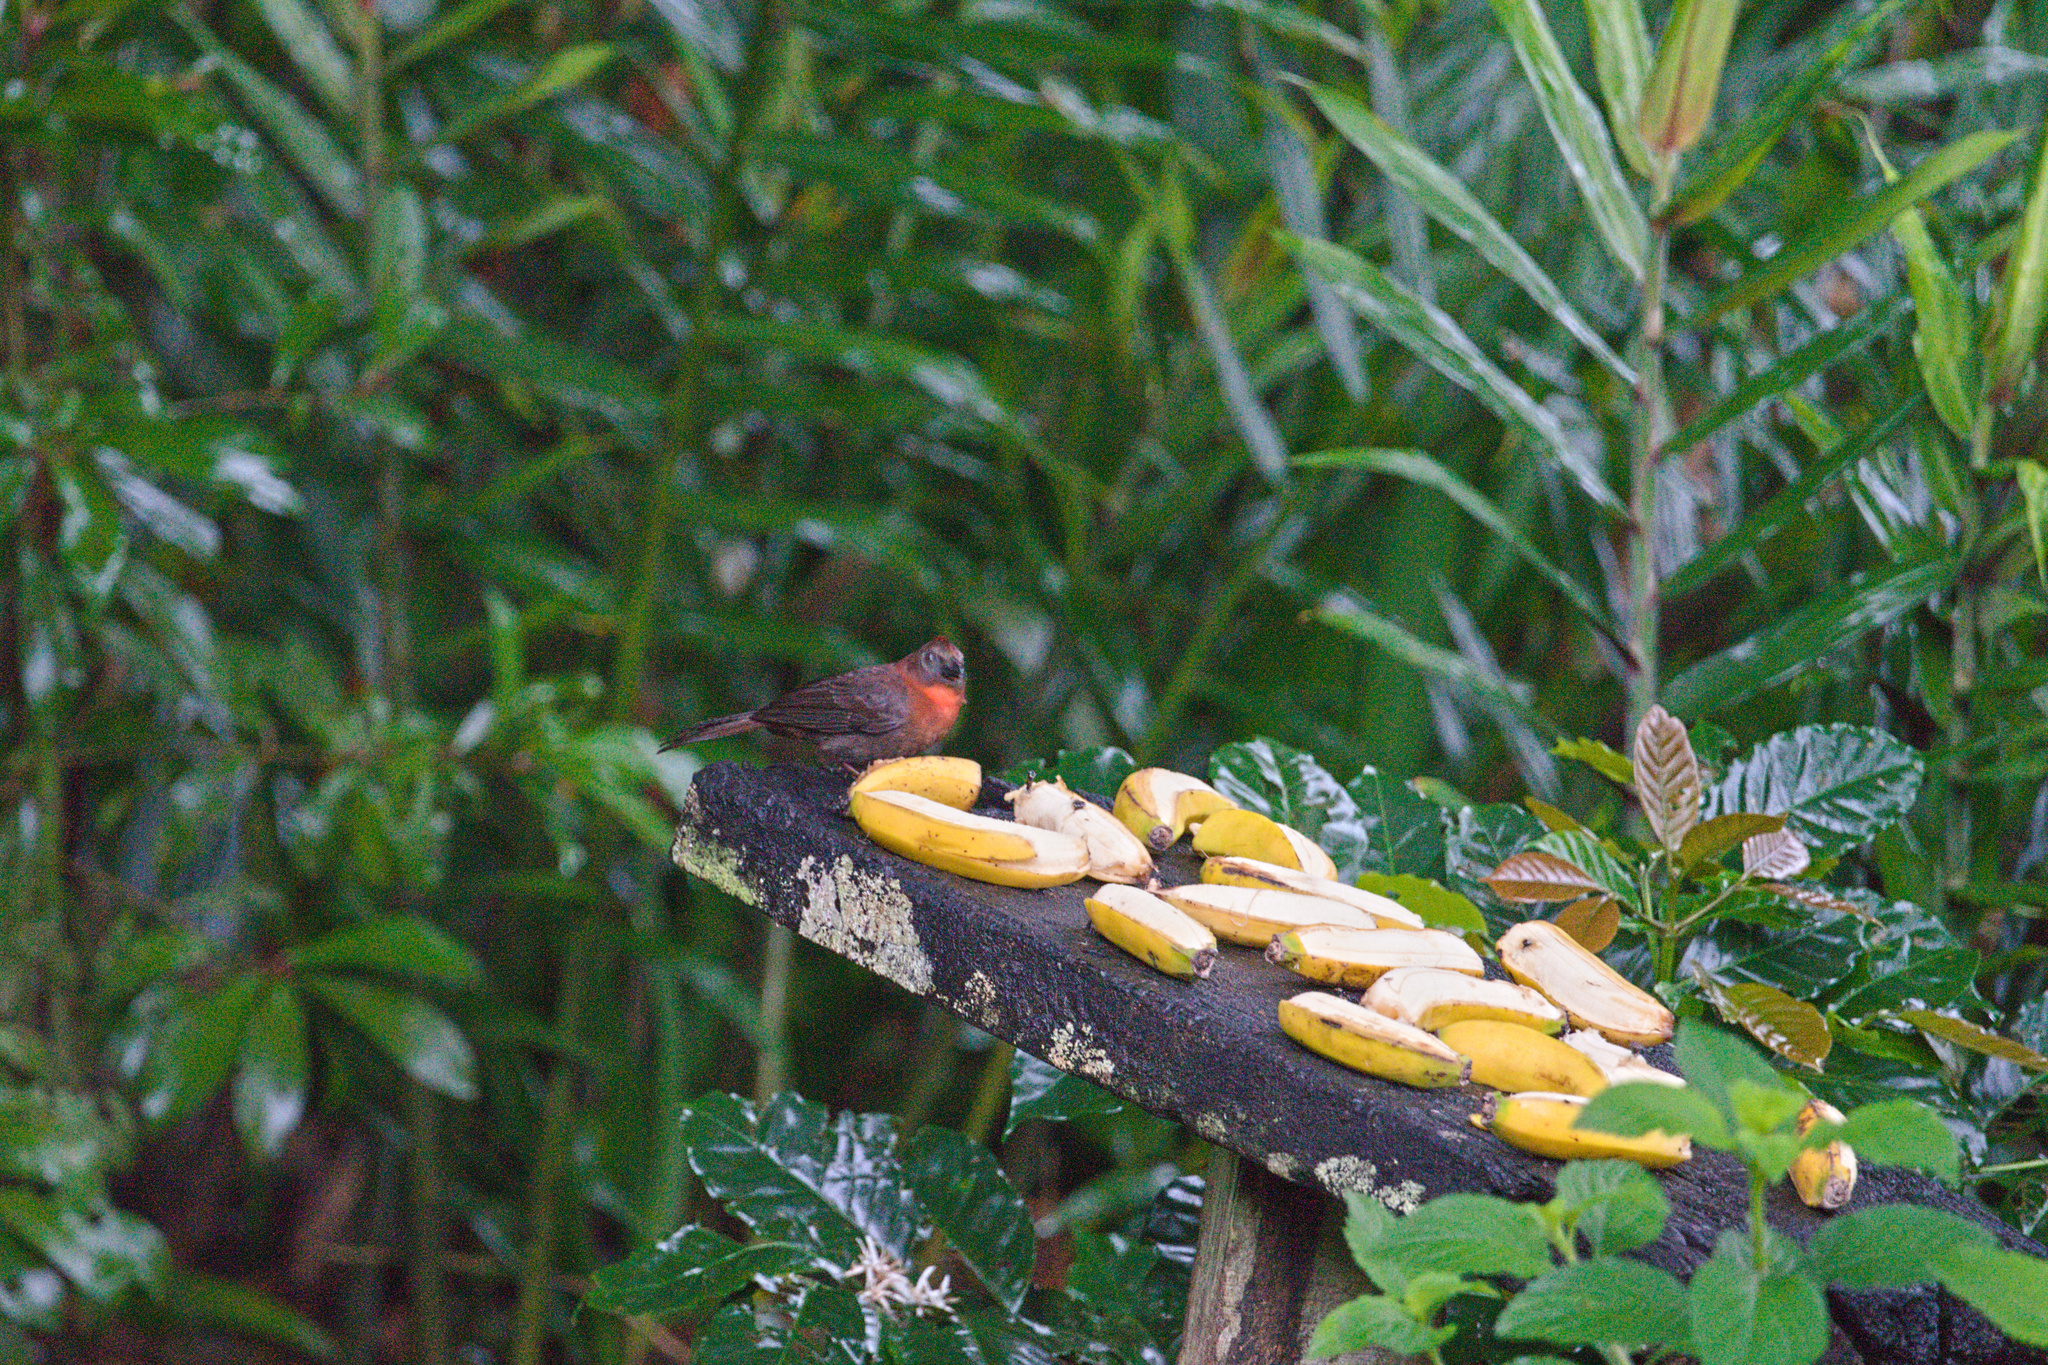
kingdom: Animalia
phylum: Chordata
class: Aves
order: Passeriformes
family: Cardinalidae
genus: Habia
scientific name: Habia fuscicauda
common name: Red-throated ant-tanager
